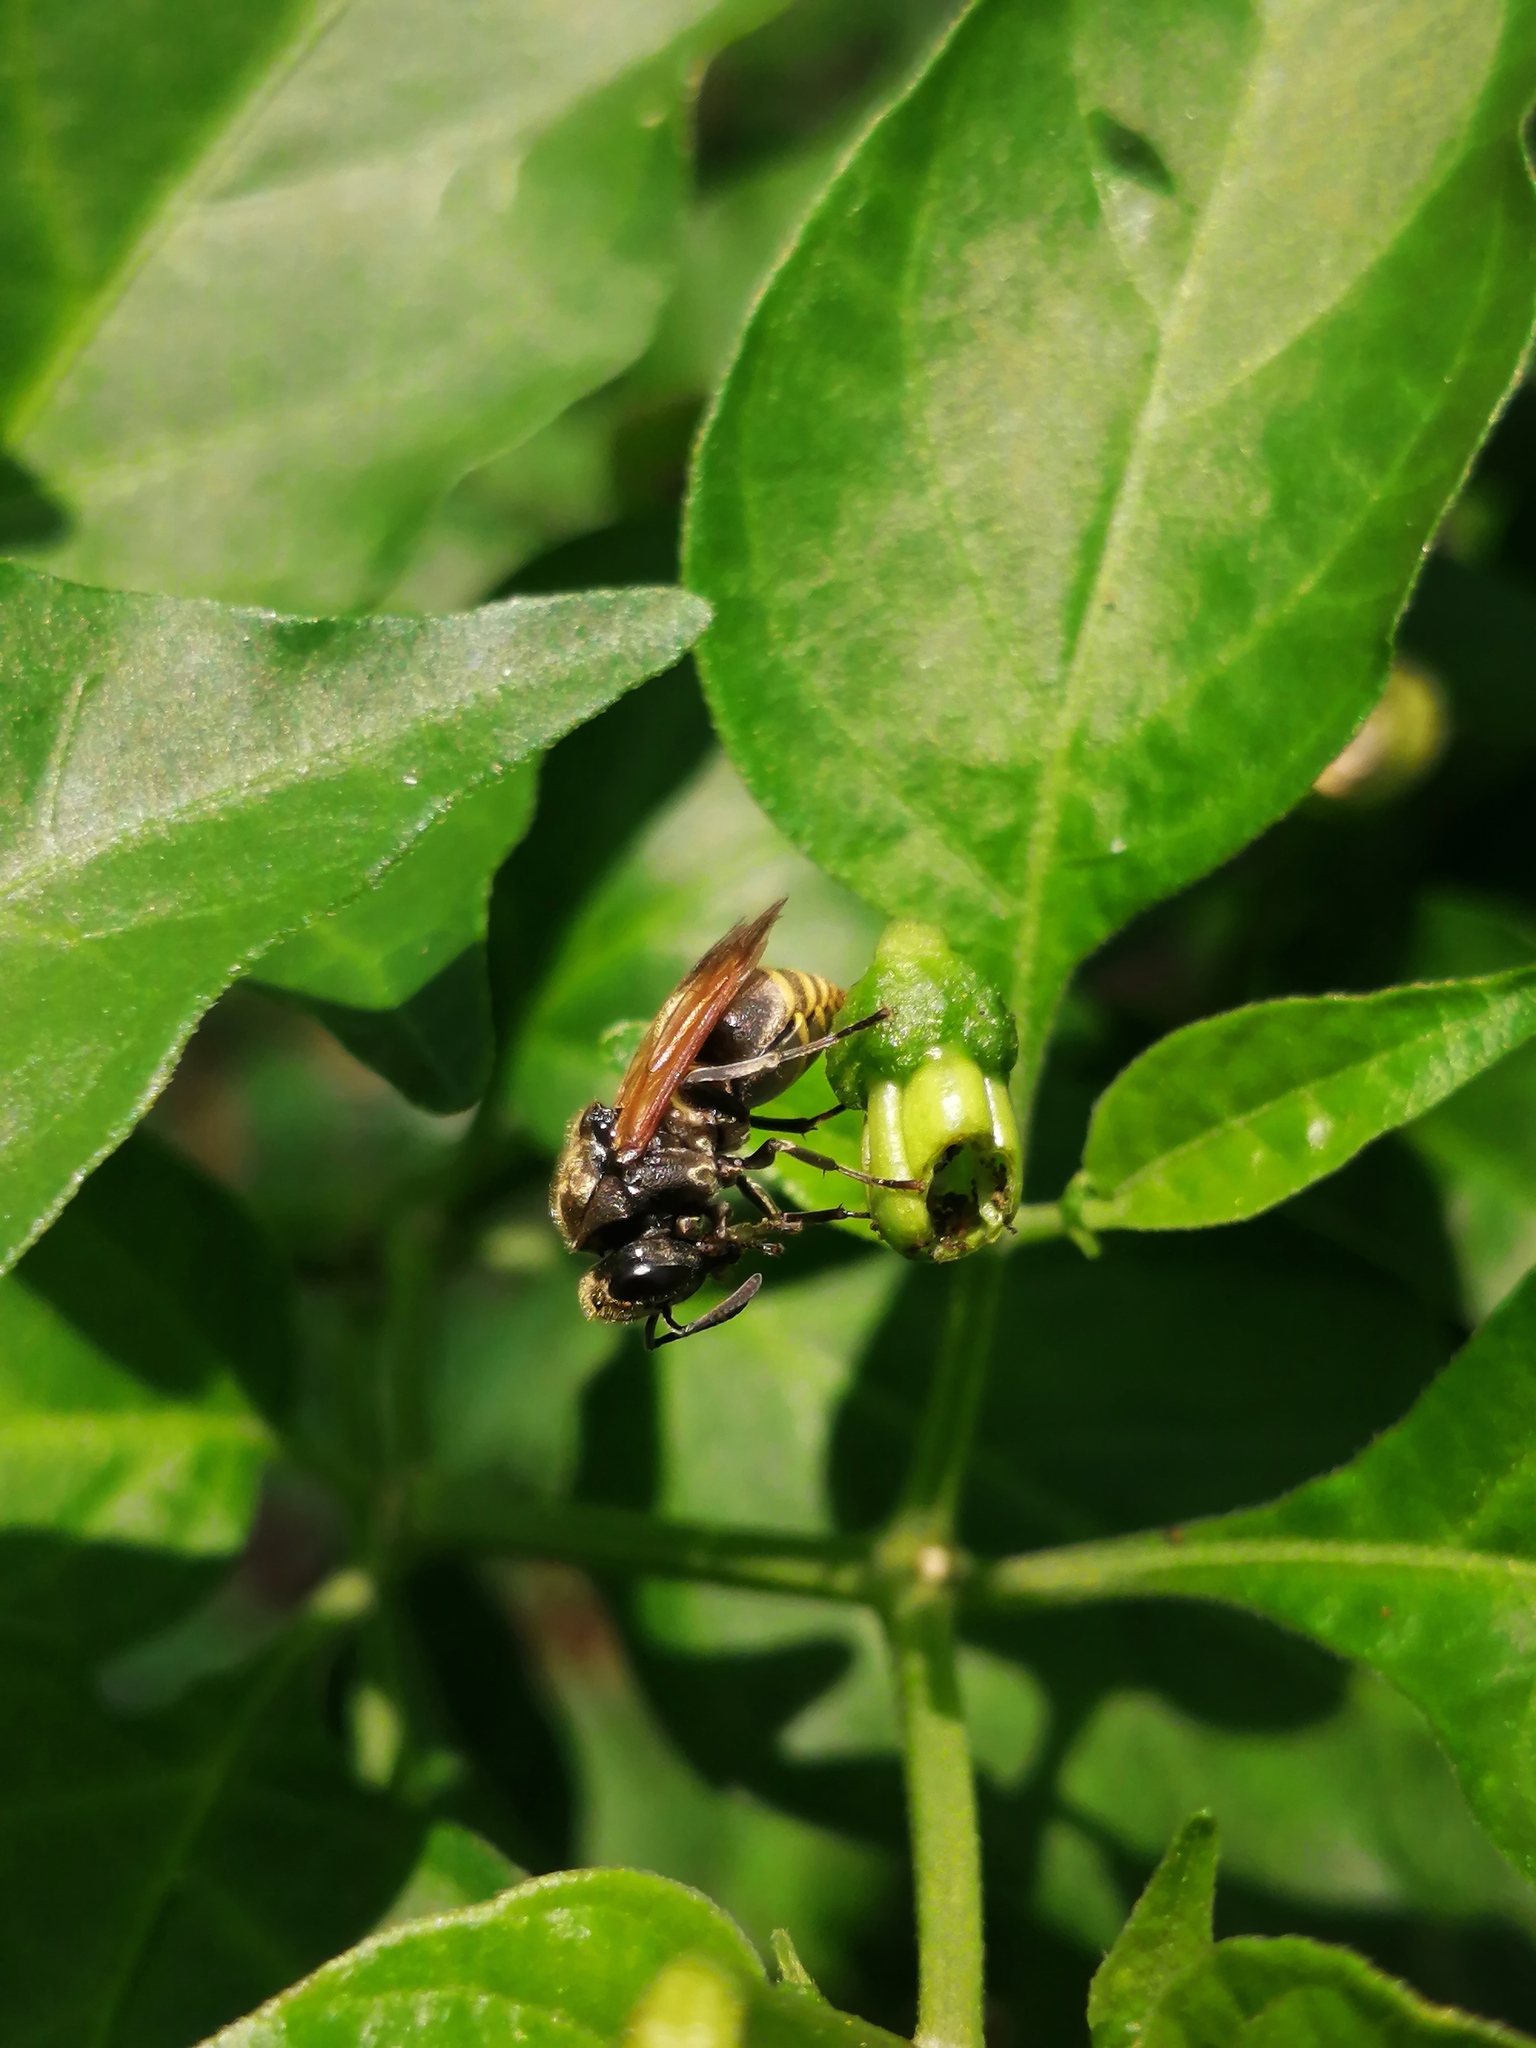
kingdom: Animalia
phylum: Arthropoda
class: Insecta
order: Hymenoptera
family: Vespidae
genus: Brachygastra
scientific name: Brachygastra mellifica
